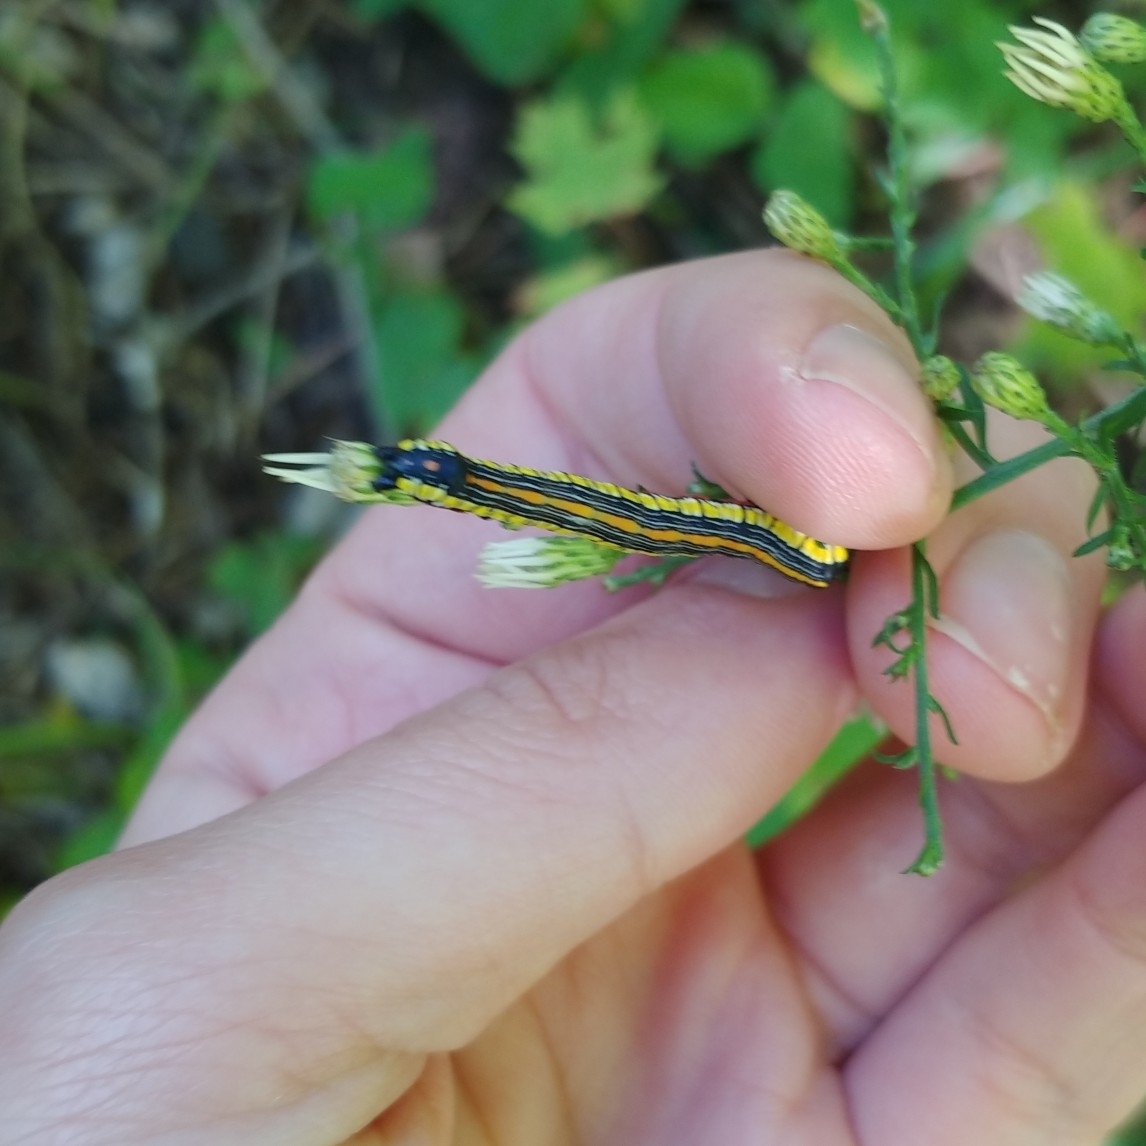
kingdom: Animalia
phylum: Arthropoda
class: Insecta
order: Lepidoptera
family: Noctuidae
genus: Cucullia
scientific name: Cucullia convexipennis
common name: Brown-hooded owlet
